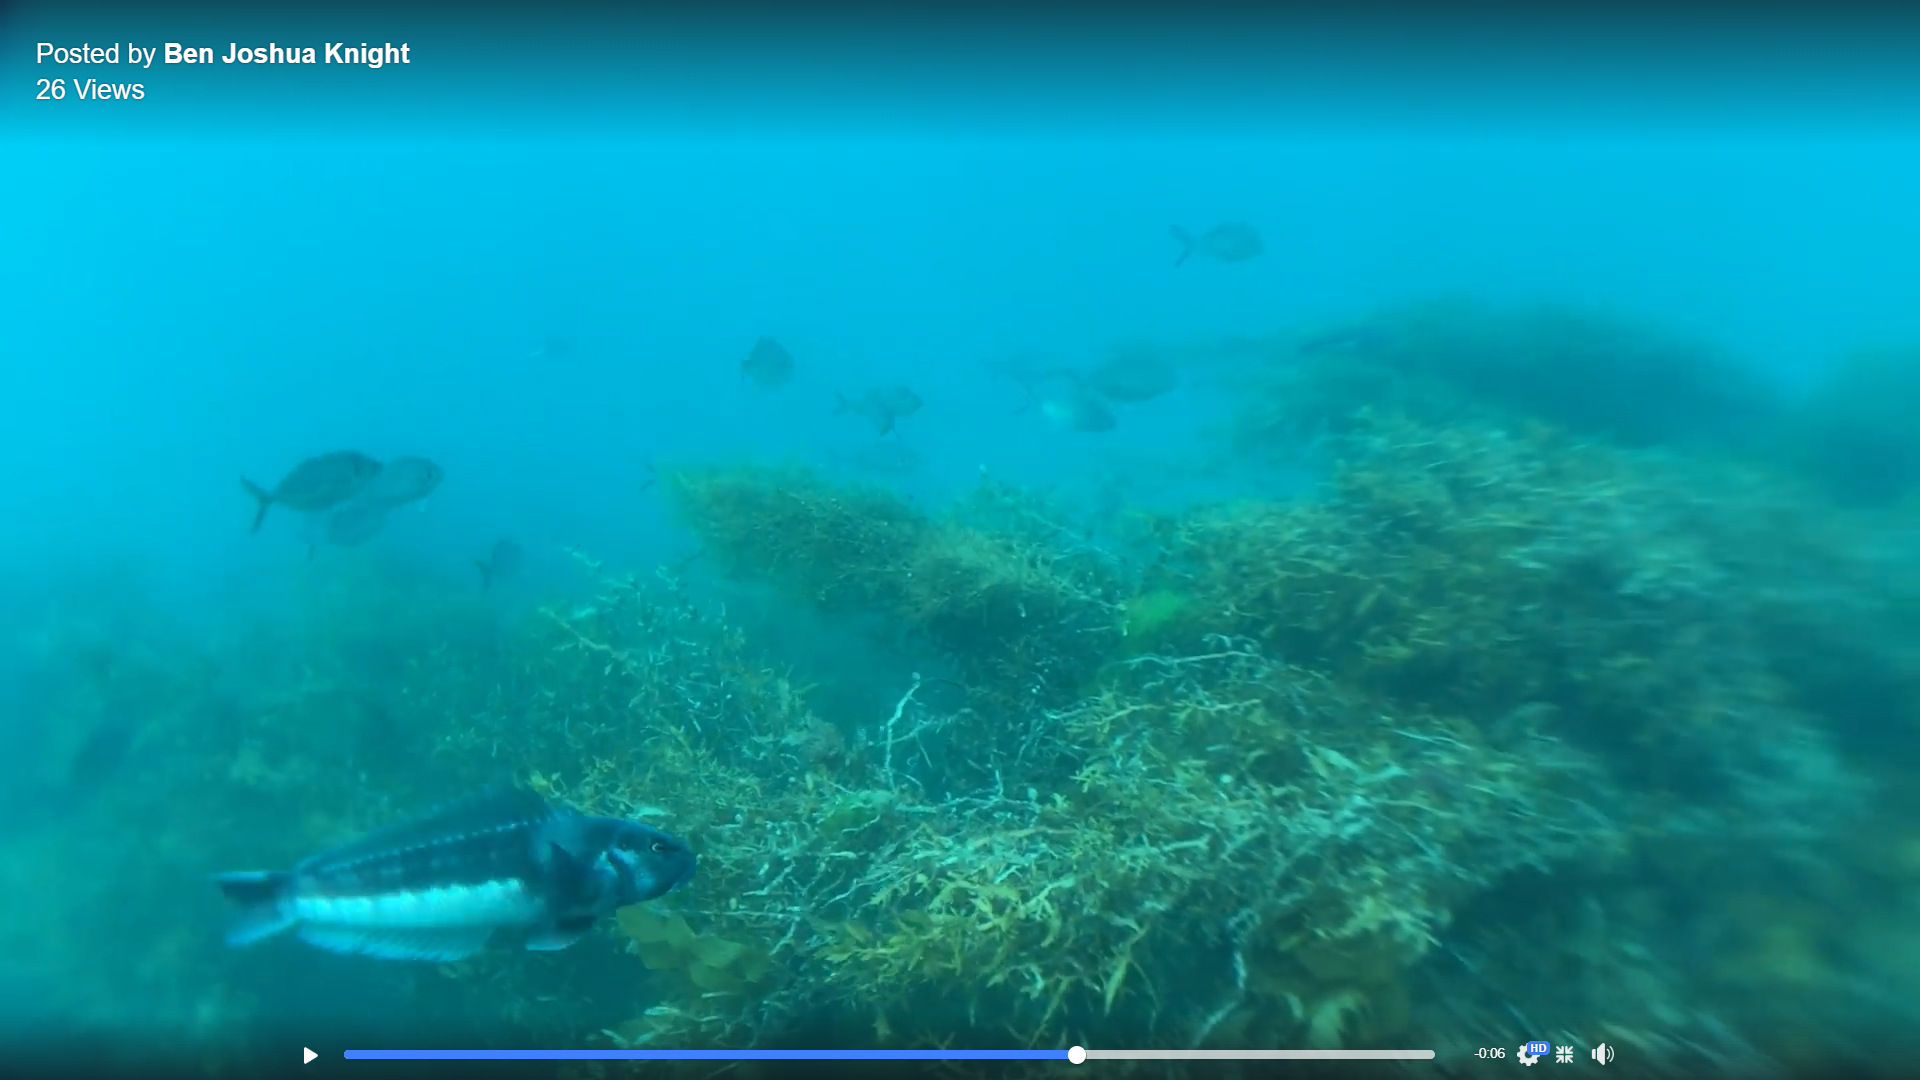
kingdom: Animalia
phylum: Chordata
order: Perciformes
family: Pinguipedidae
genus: Parapercis
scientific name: Parapercis colias
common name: Blue cod
